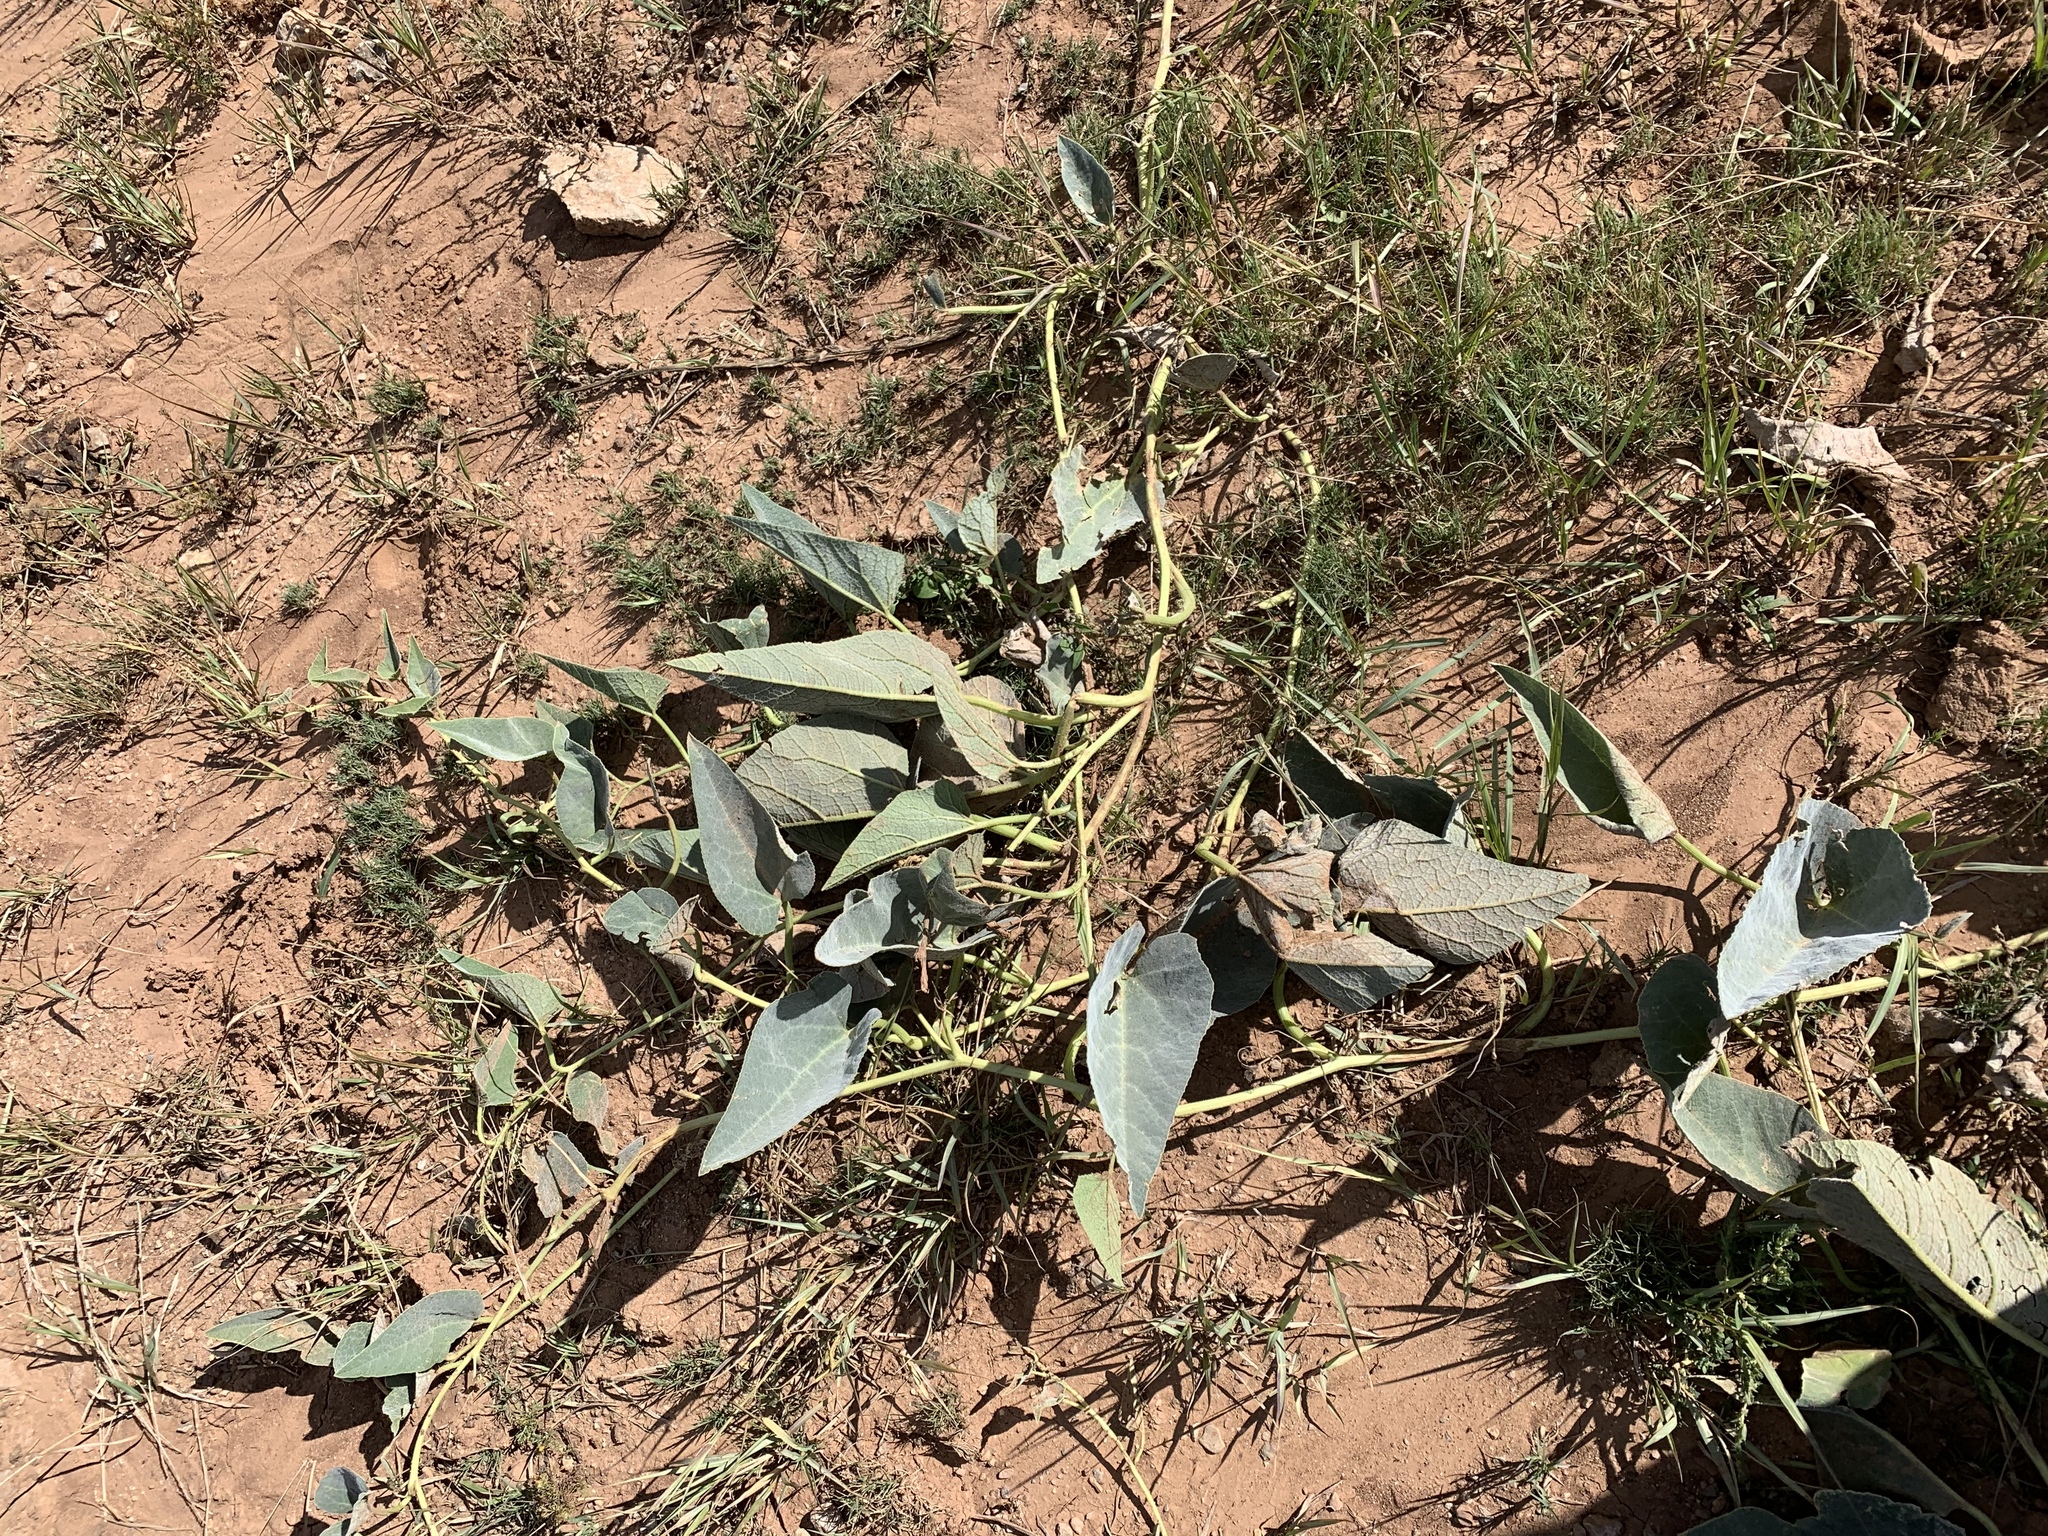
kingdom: Plantae
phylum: Tracheophyta
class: Magnoliopsida
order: Cucurbitales
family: Cucurbitaceae
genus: Cucurbita
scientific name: Cucurbita foetidissima
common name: Buffalo gourd
